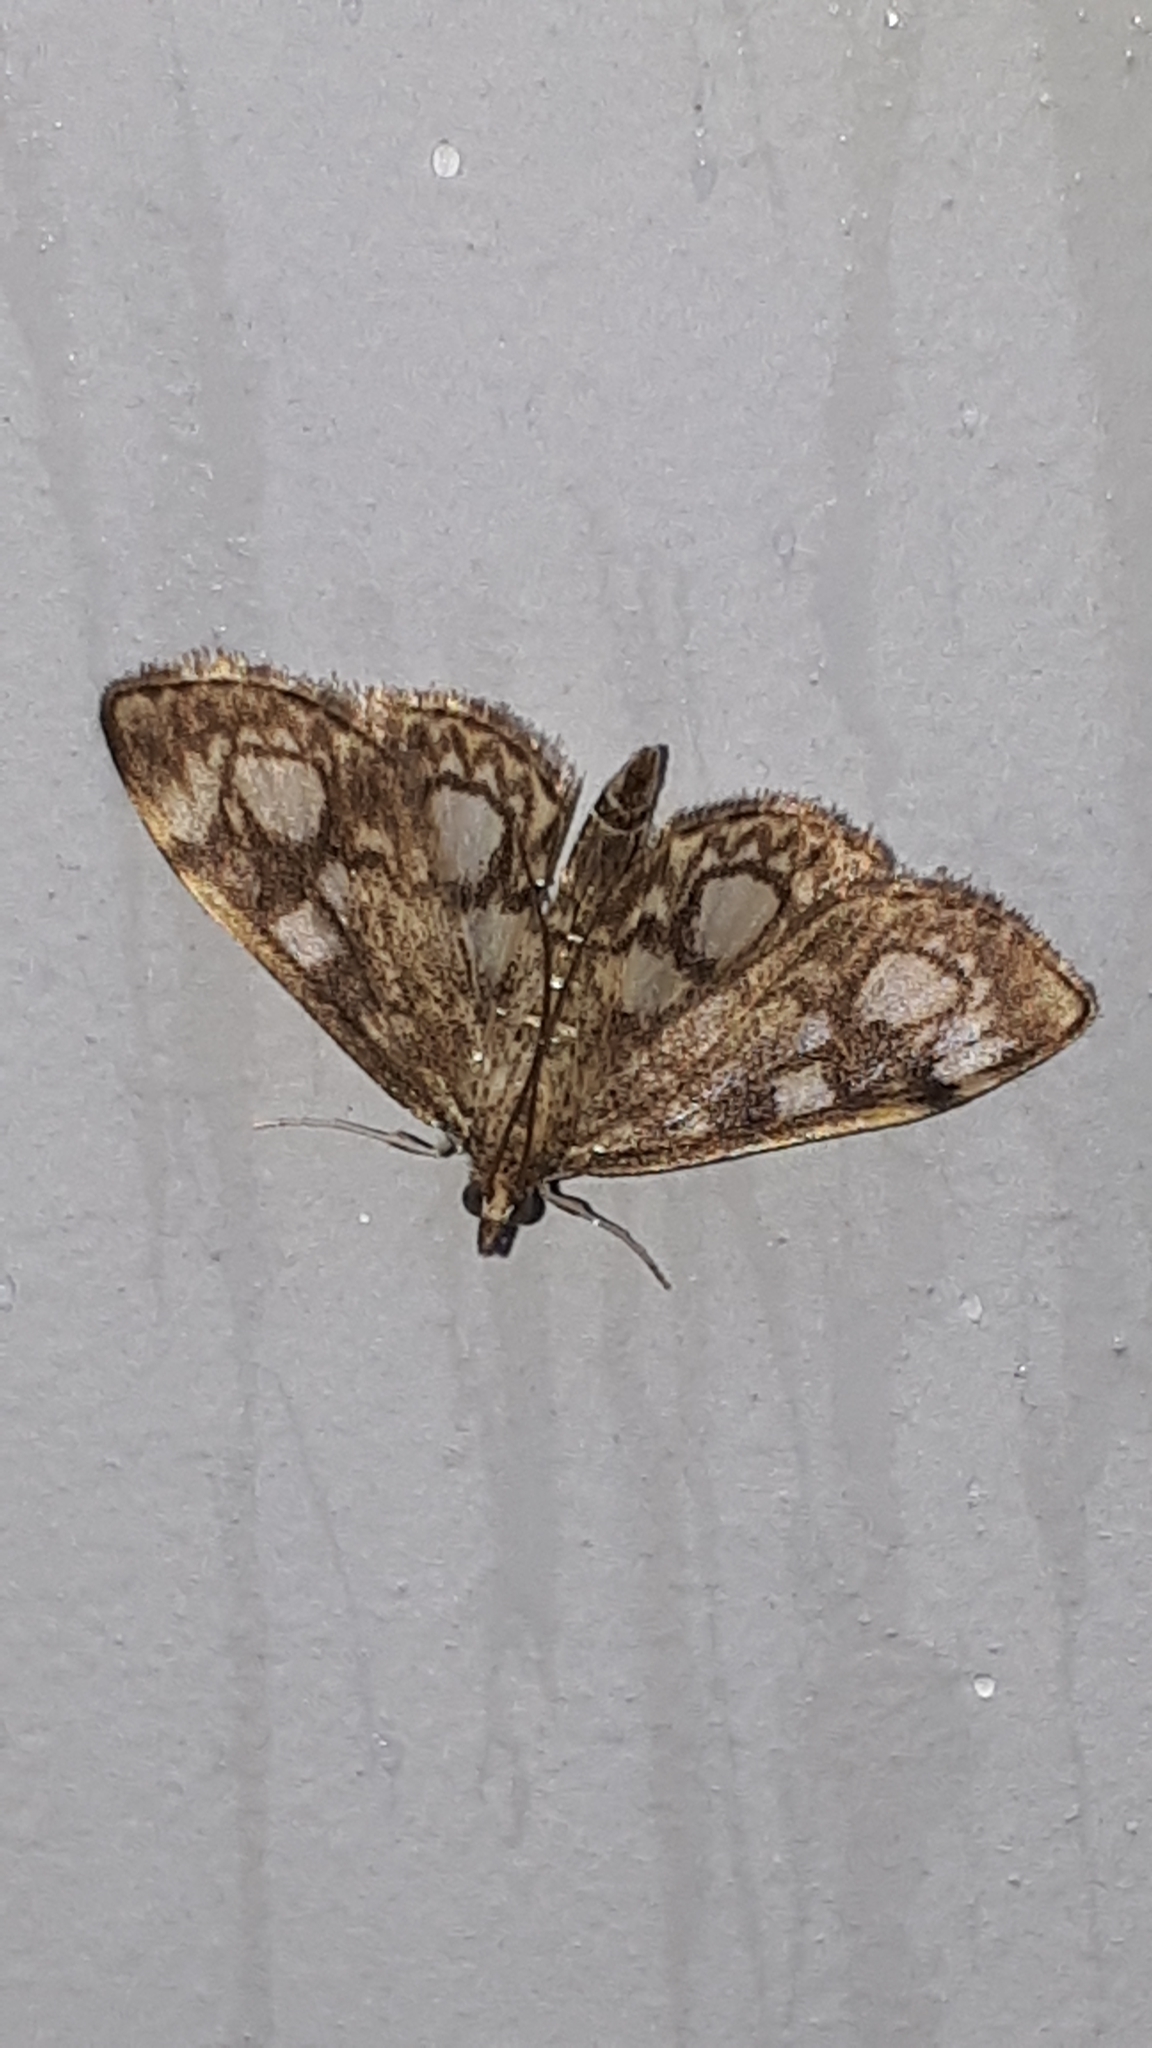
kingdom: Animalia
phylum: Arthropoda
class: Insecta
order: Lepidoptera
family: Crambidae
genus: Anania
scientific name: Anania coronata
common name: Elder pearl
